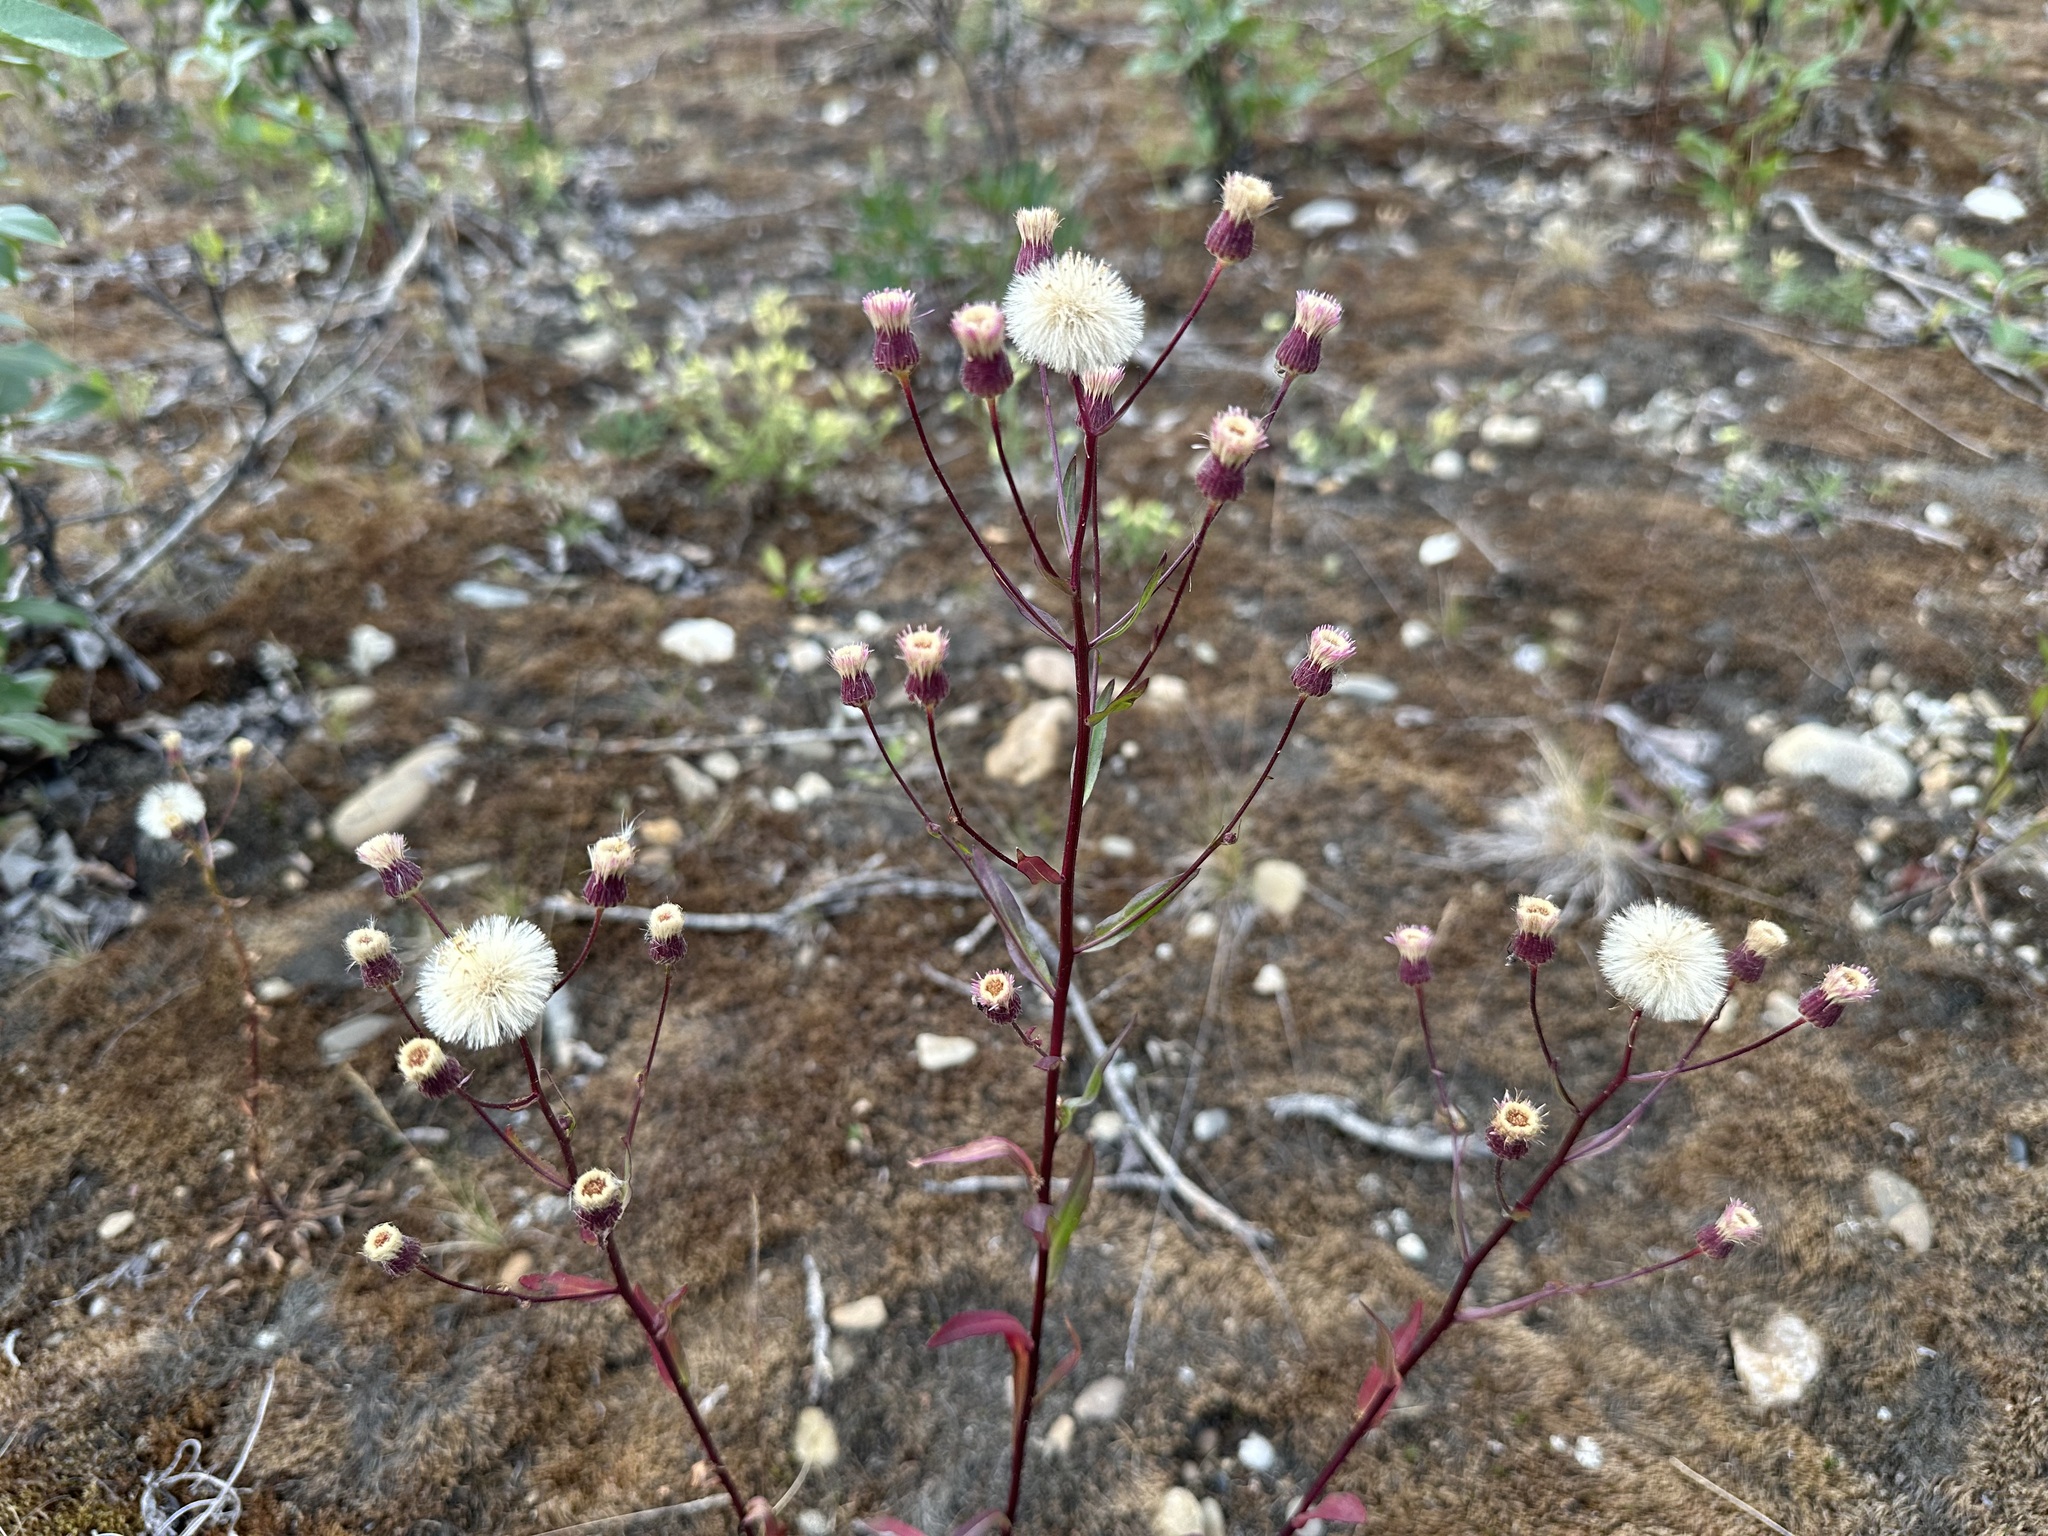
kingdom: Plantae
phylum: Tracheophyta
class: Magnoliopsida
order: Asterales
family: Asteraceae
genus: Erigeron
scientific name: Erigeron acris
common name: Blue fleabane
